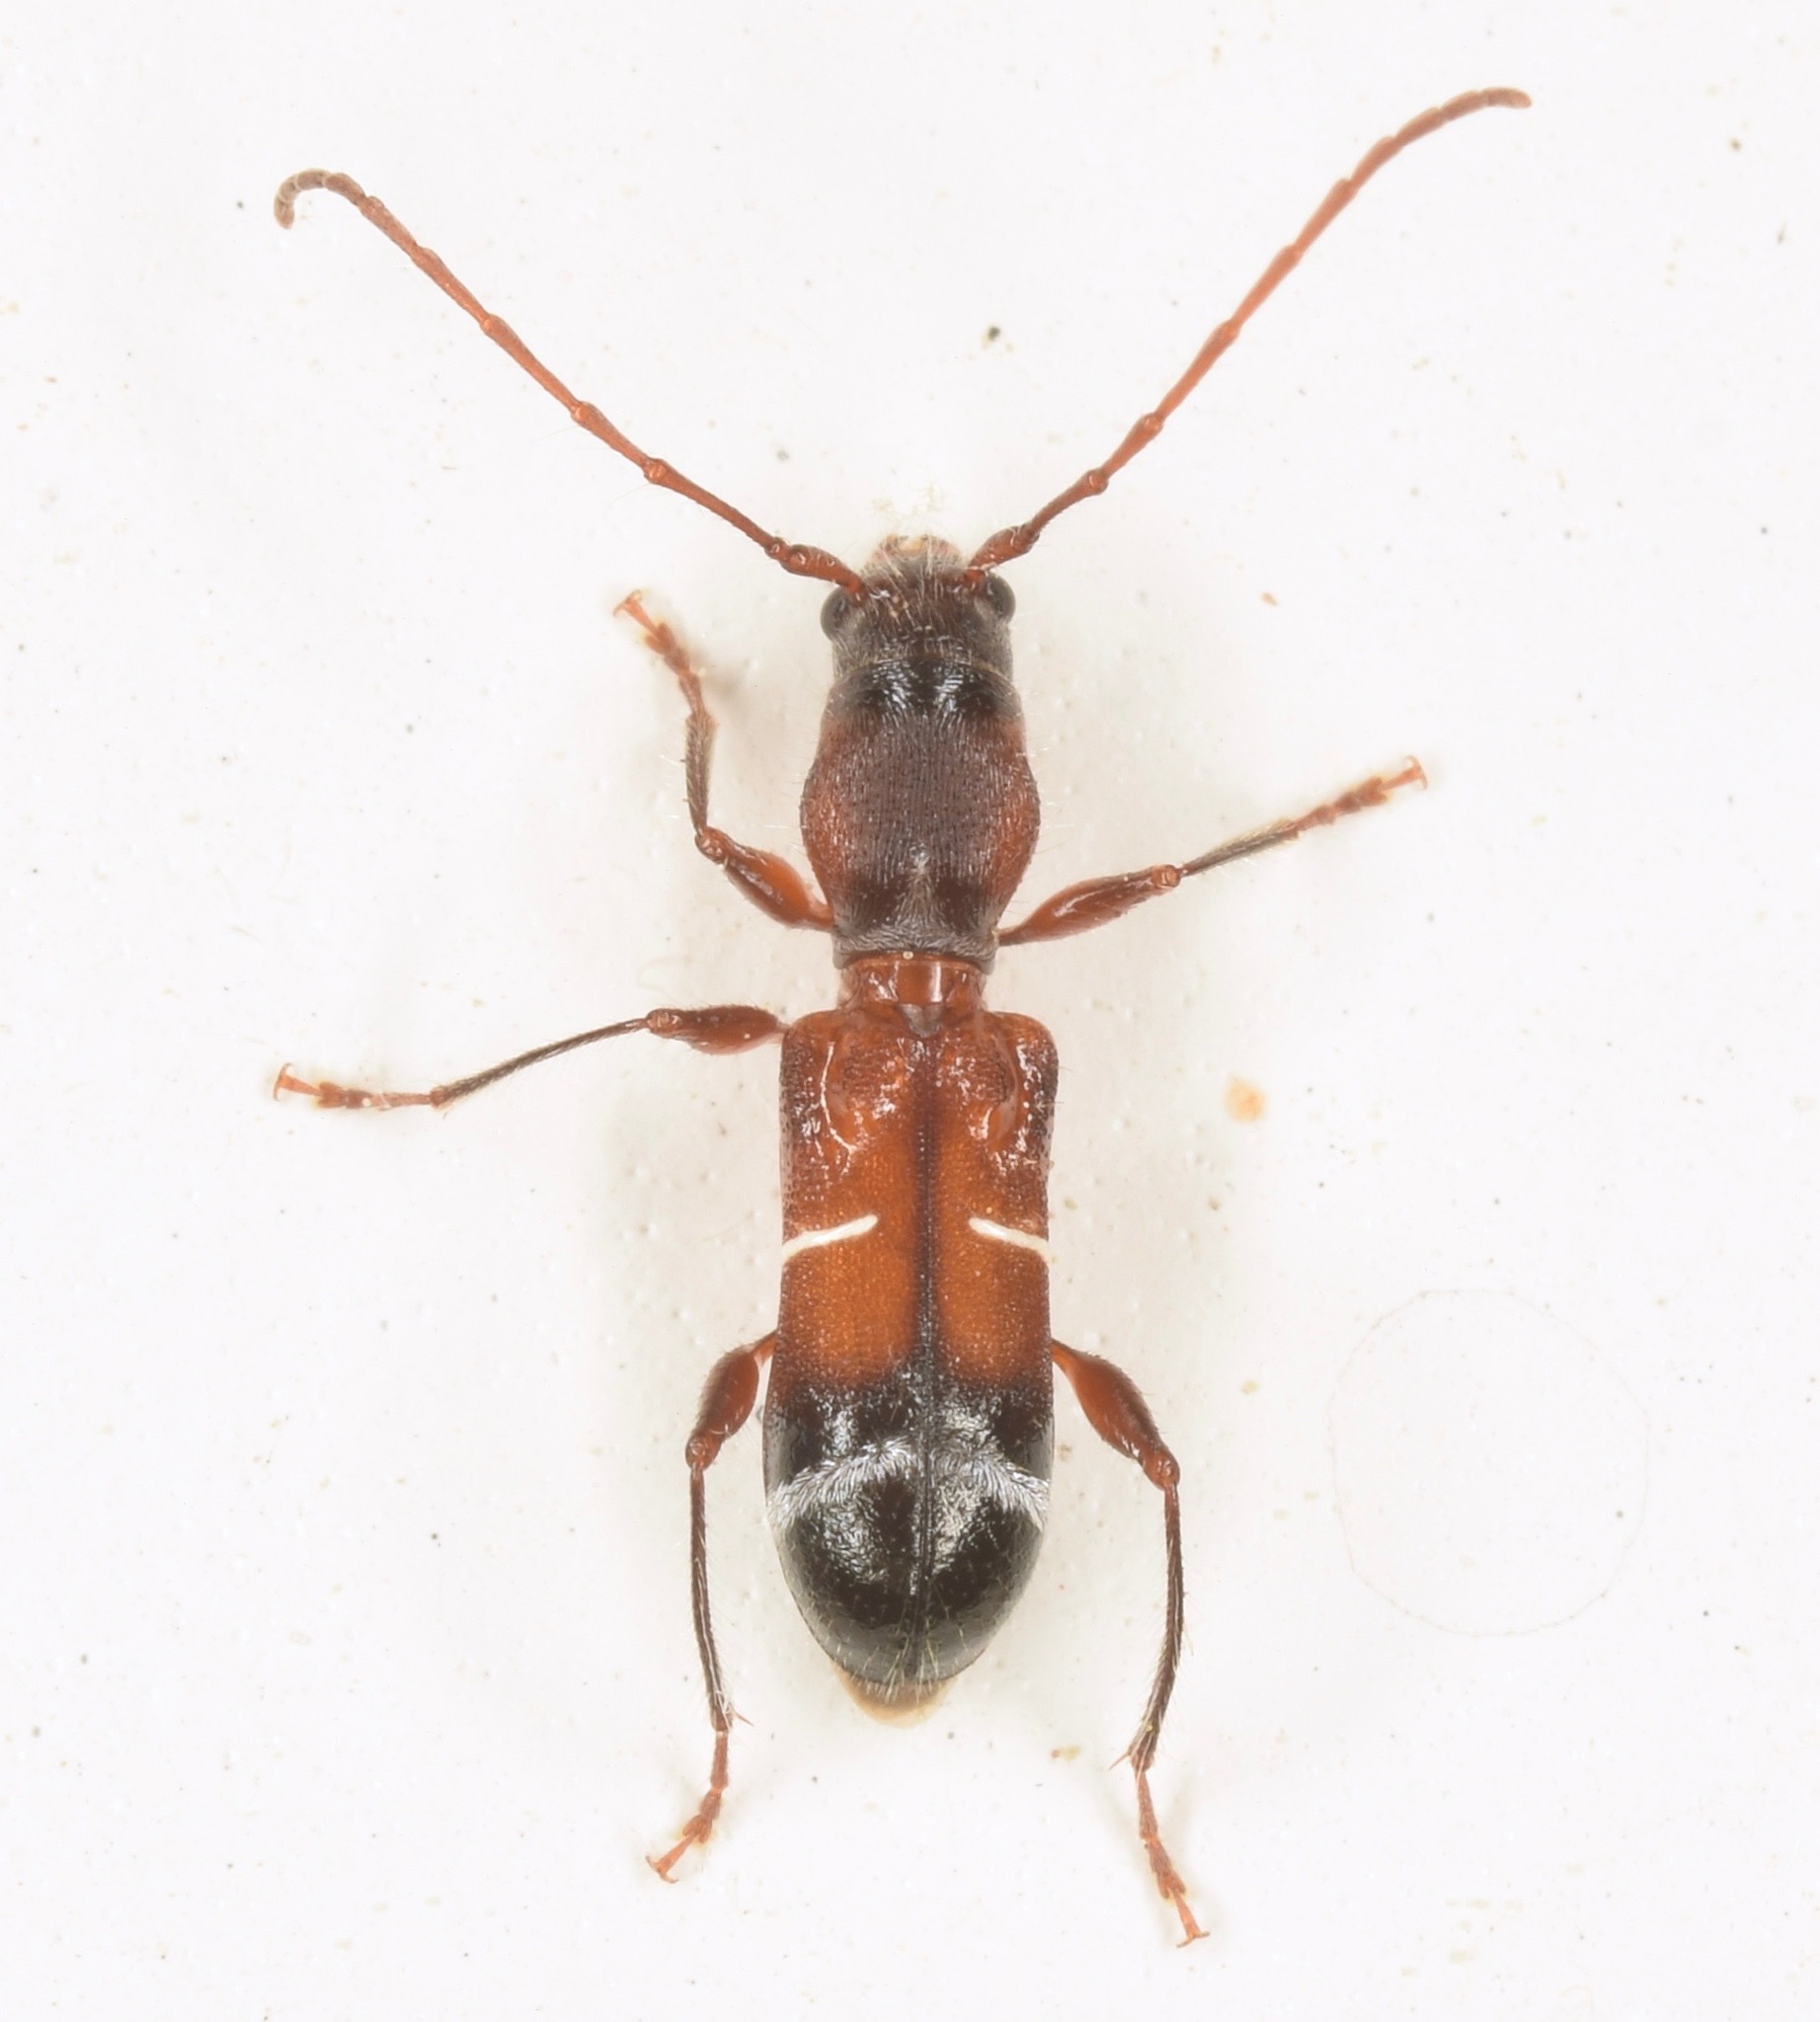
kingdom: Animalia
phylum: Arthropoda
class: Insecta
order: Coleoptera
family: Cerambycidae
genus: Euderces
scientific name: Euderces pini
